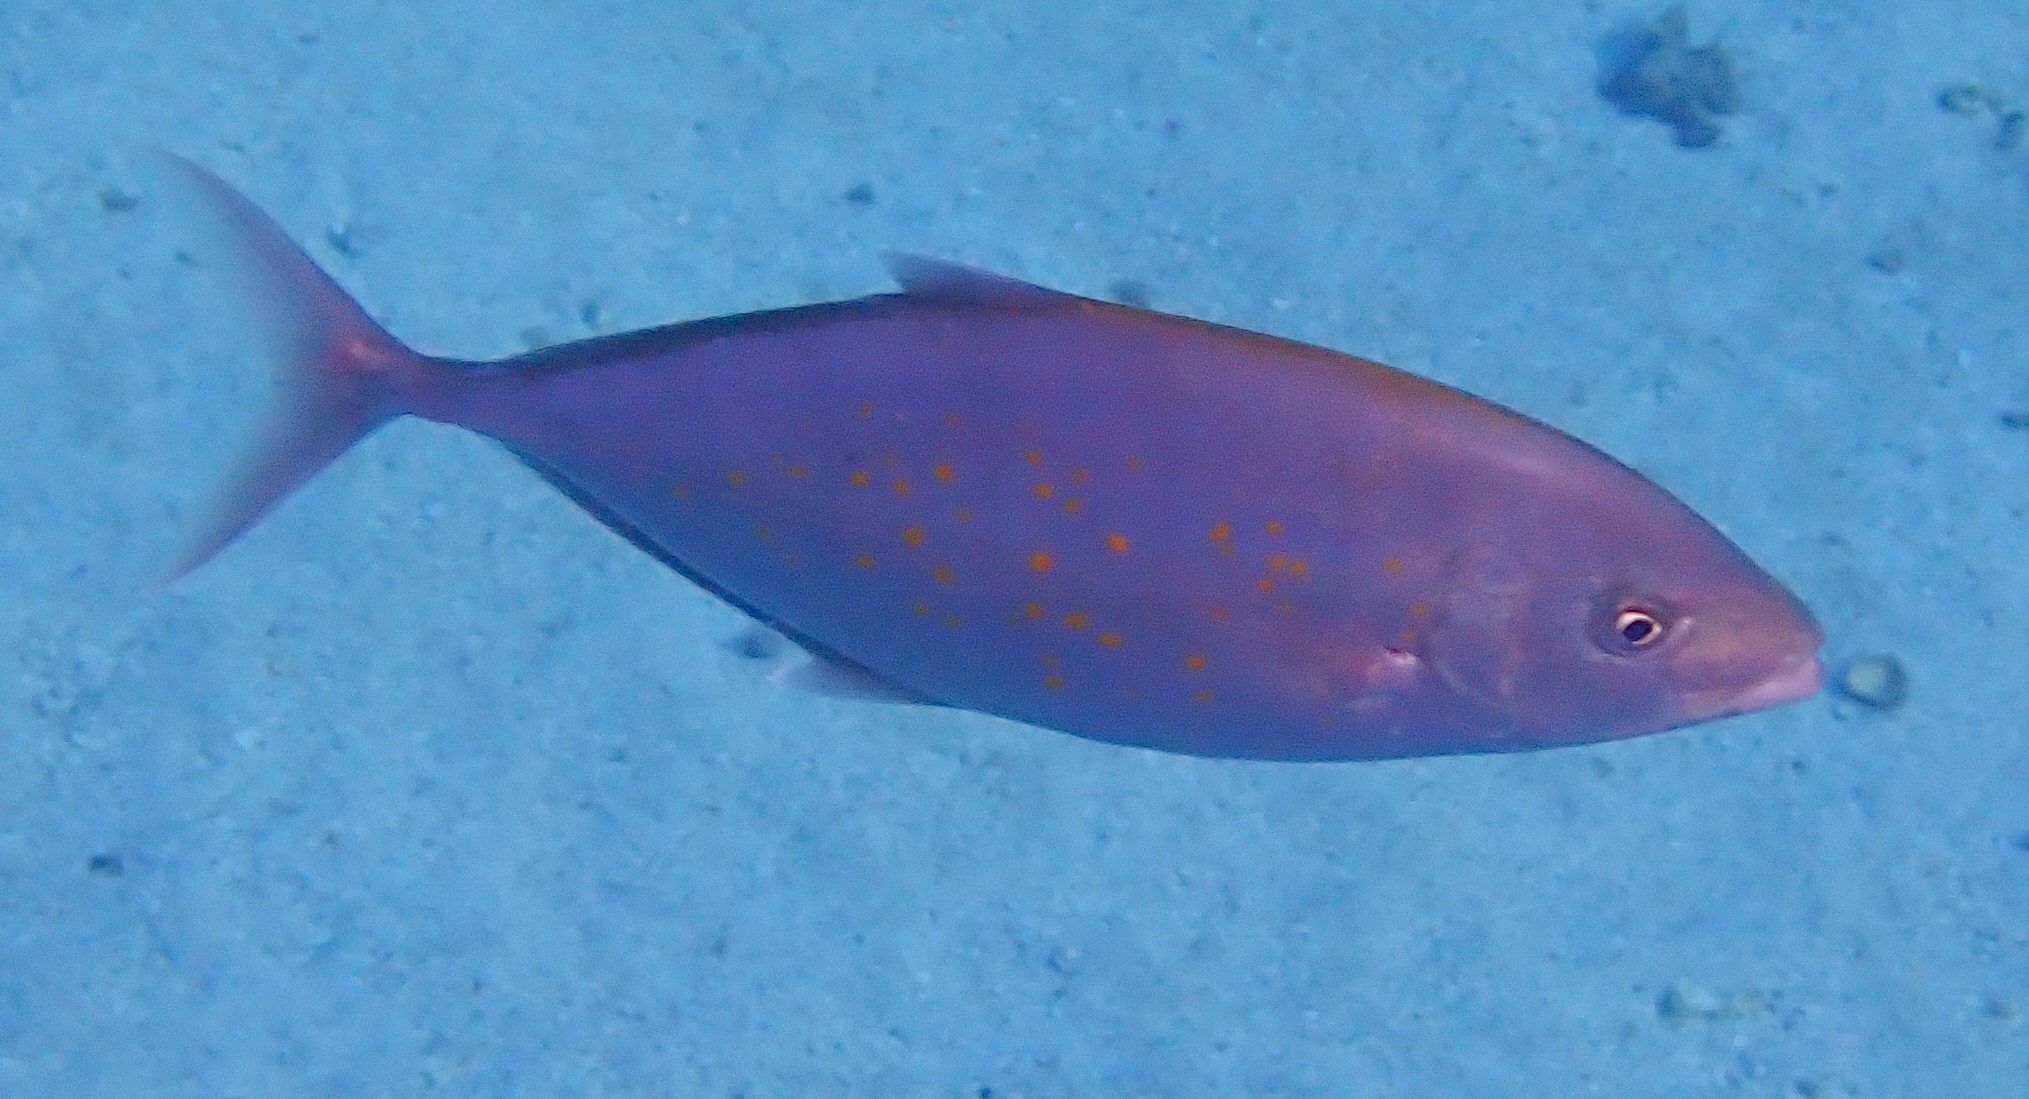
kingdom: Animalia
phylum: Chordata
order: Perciformes
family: Carangidae
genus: Flavocaranx
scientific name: Flavocaranx bajad
